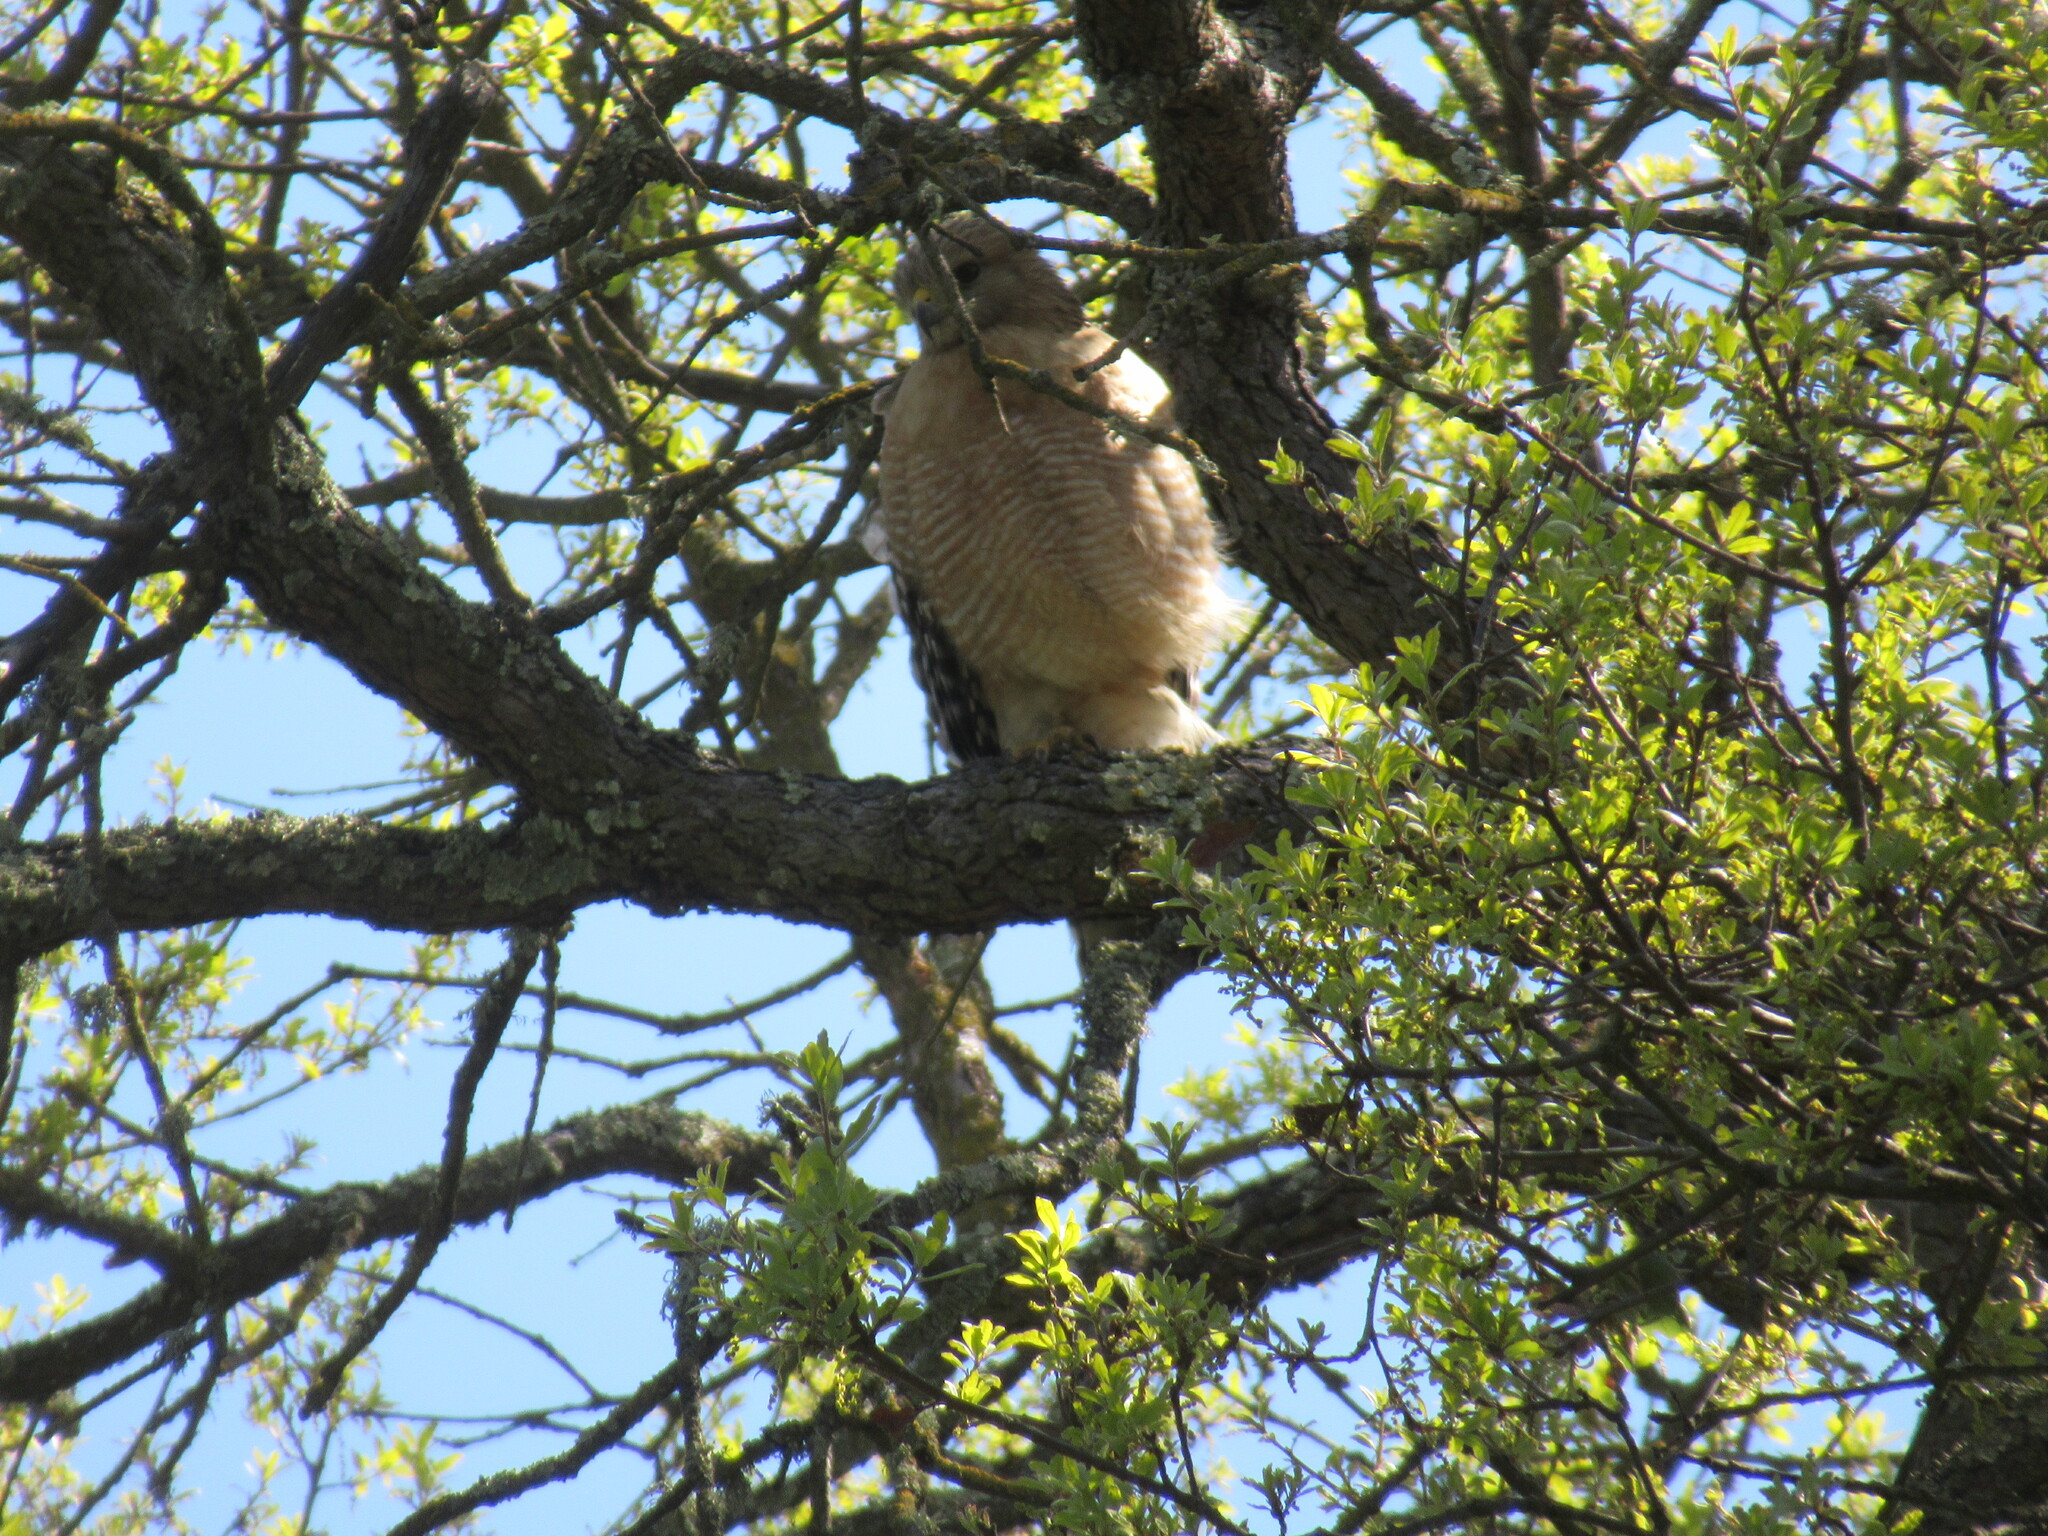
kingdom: Animalia
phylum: Chordata
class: Aves
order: Accipitriformes
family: Accipitridae
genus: Buteo
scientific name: Buteo lineatus
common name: Red-shouldered hawk
